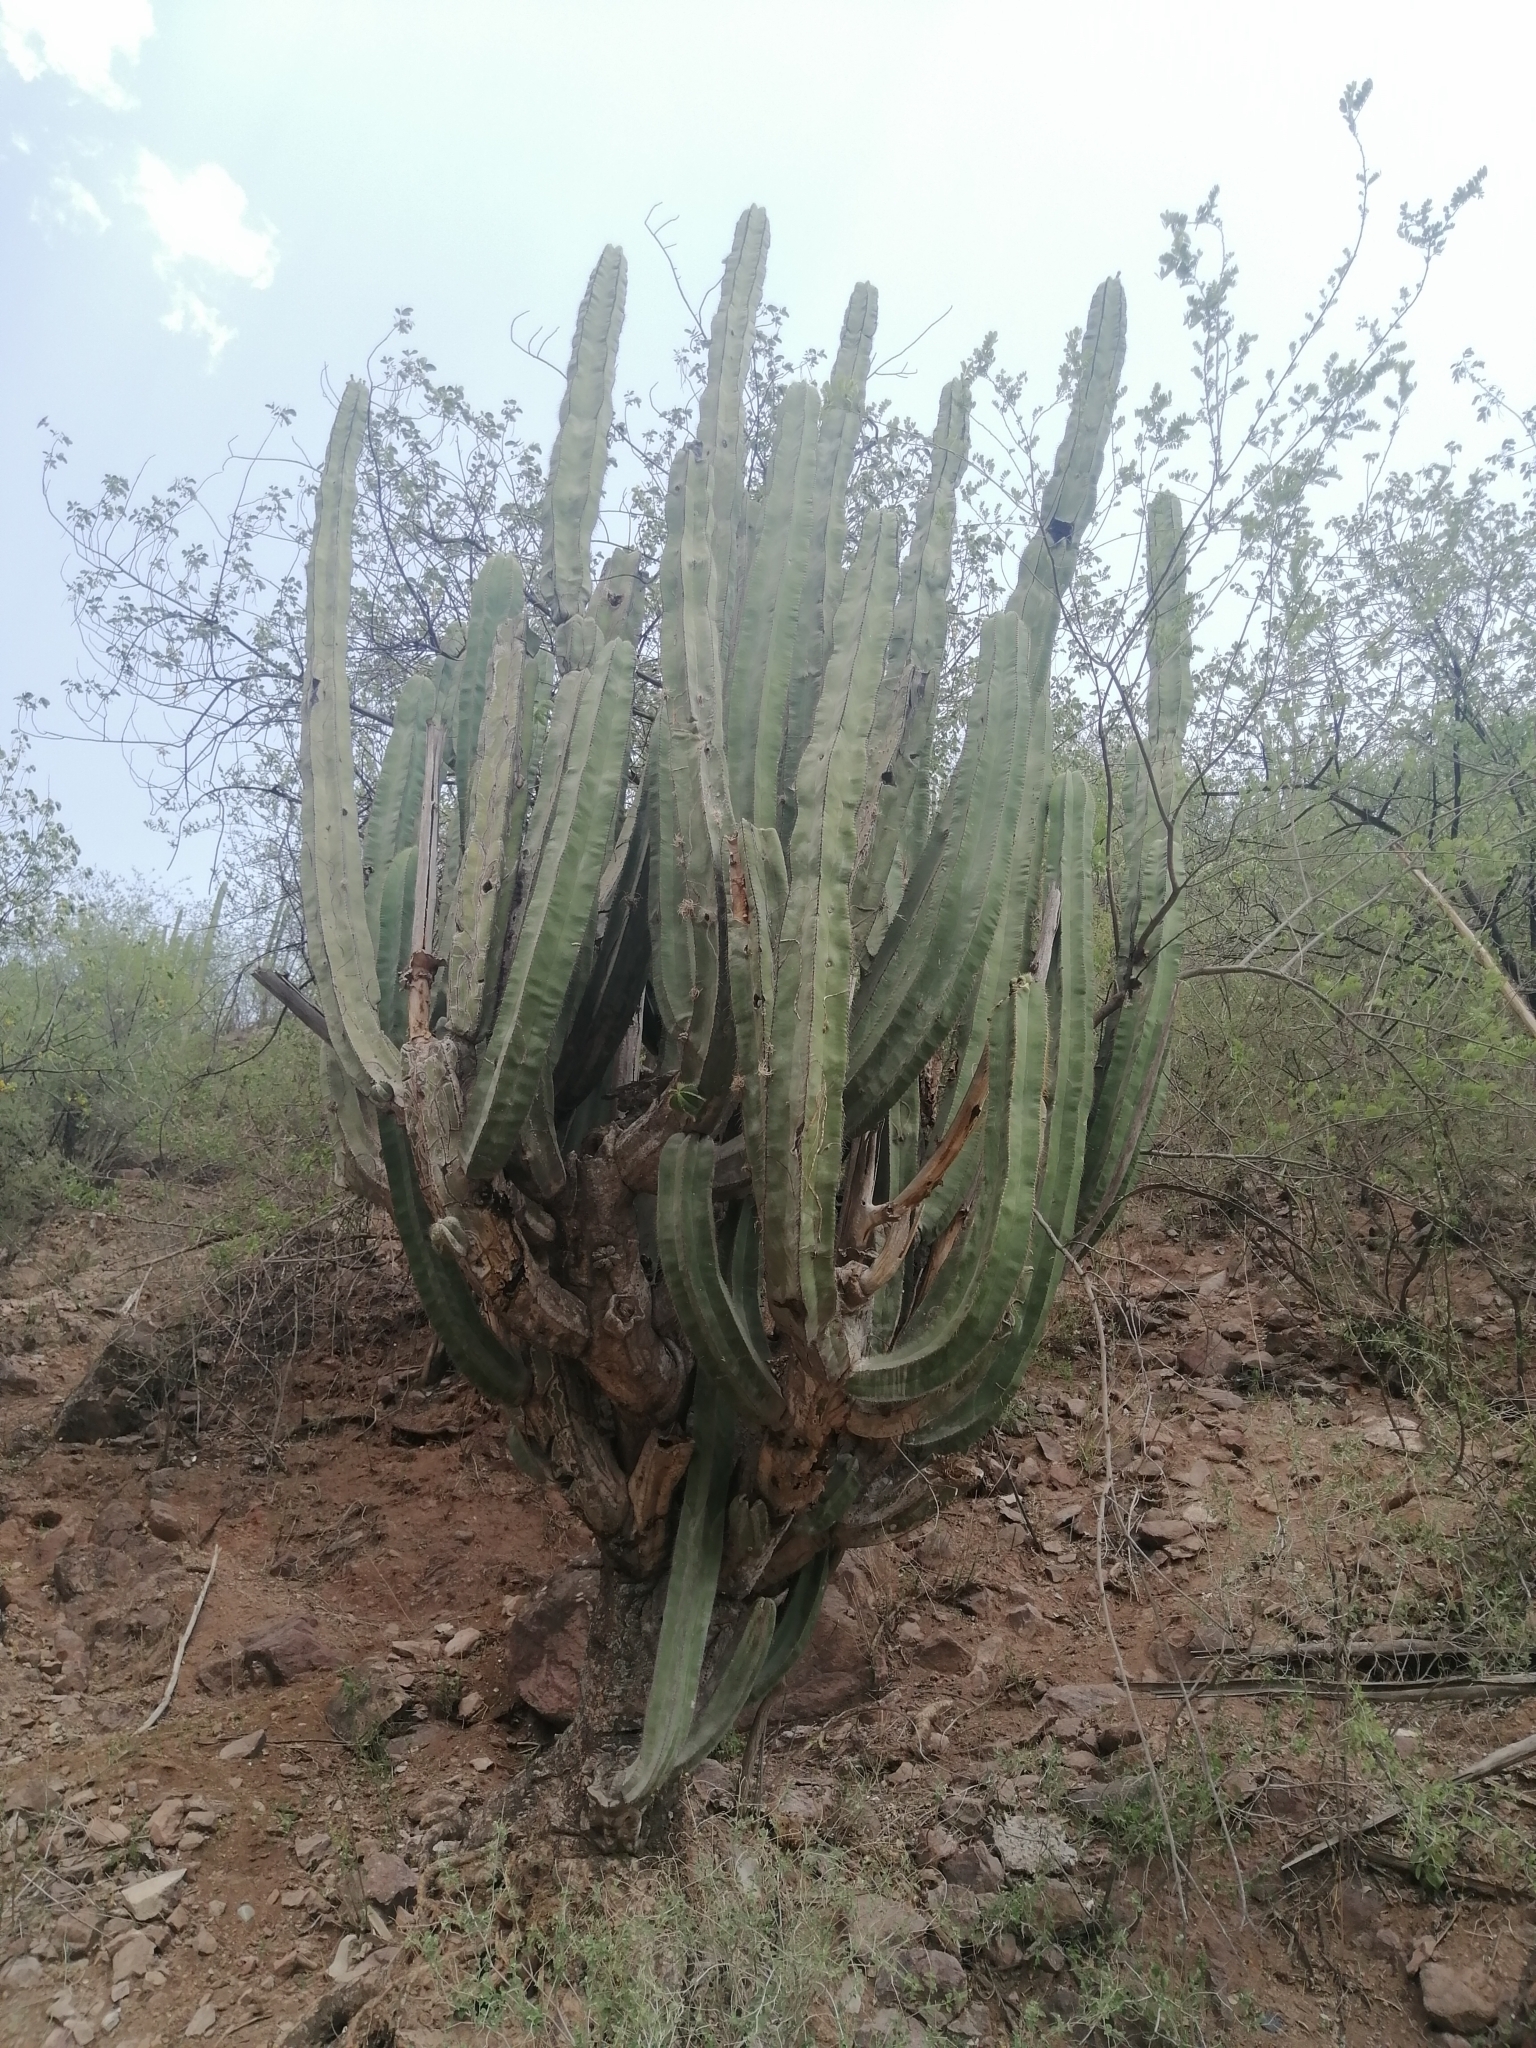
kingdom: Plantae
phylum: Tracheophyta
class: Magnoliopsida
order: Caryophyllales
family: Cactaceae
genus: Stenocereus
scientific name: Stenocereus dumortieri
